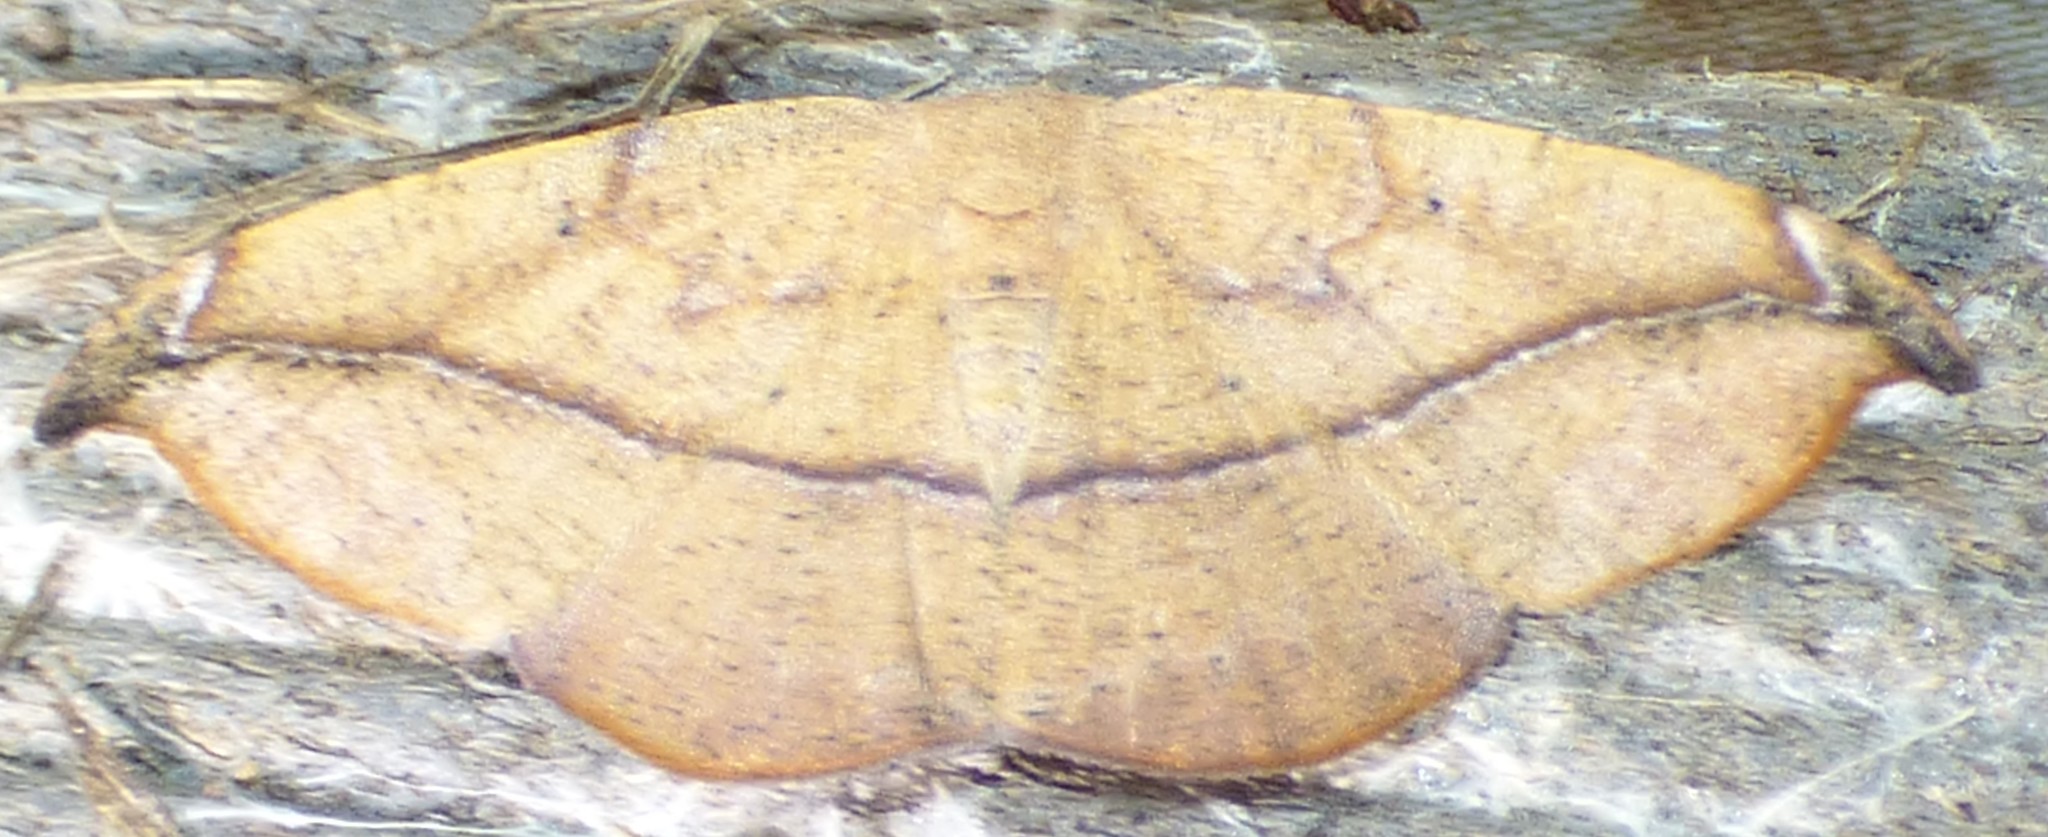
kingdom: Animalia
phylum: Arthropoda
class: Insecta
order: Lepidoptera
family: Geometridae
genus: Patalene
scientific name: Patalene olyzonaria
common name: Juniper geometer moth
